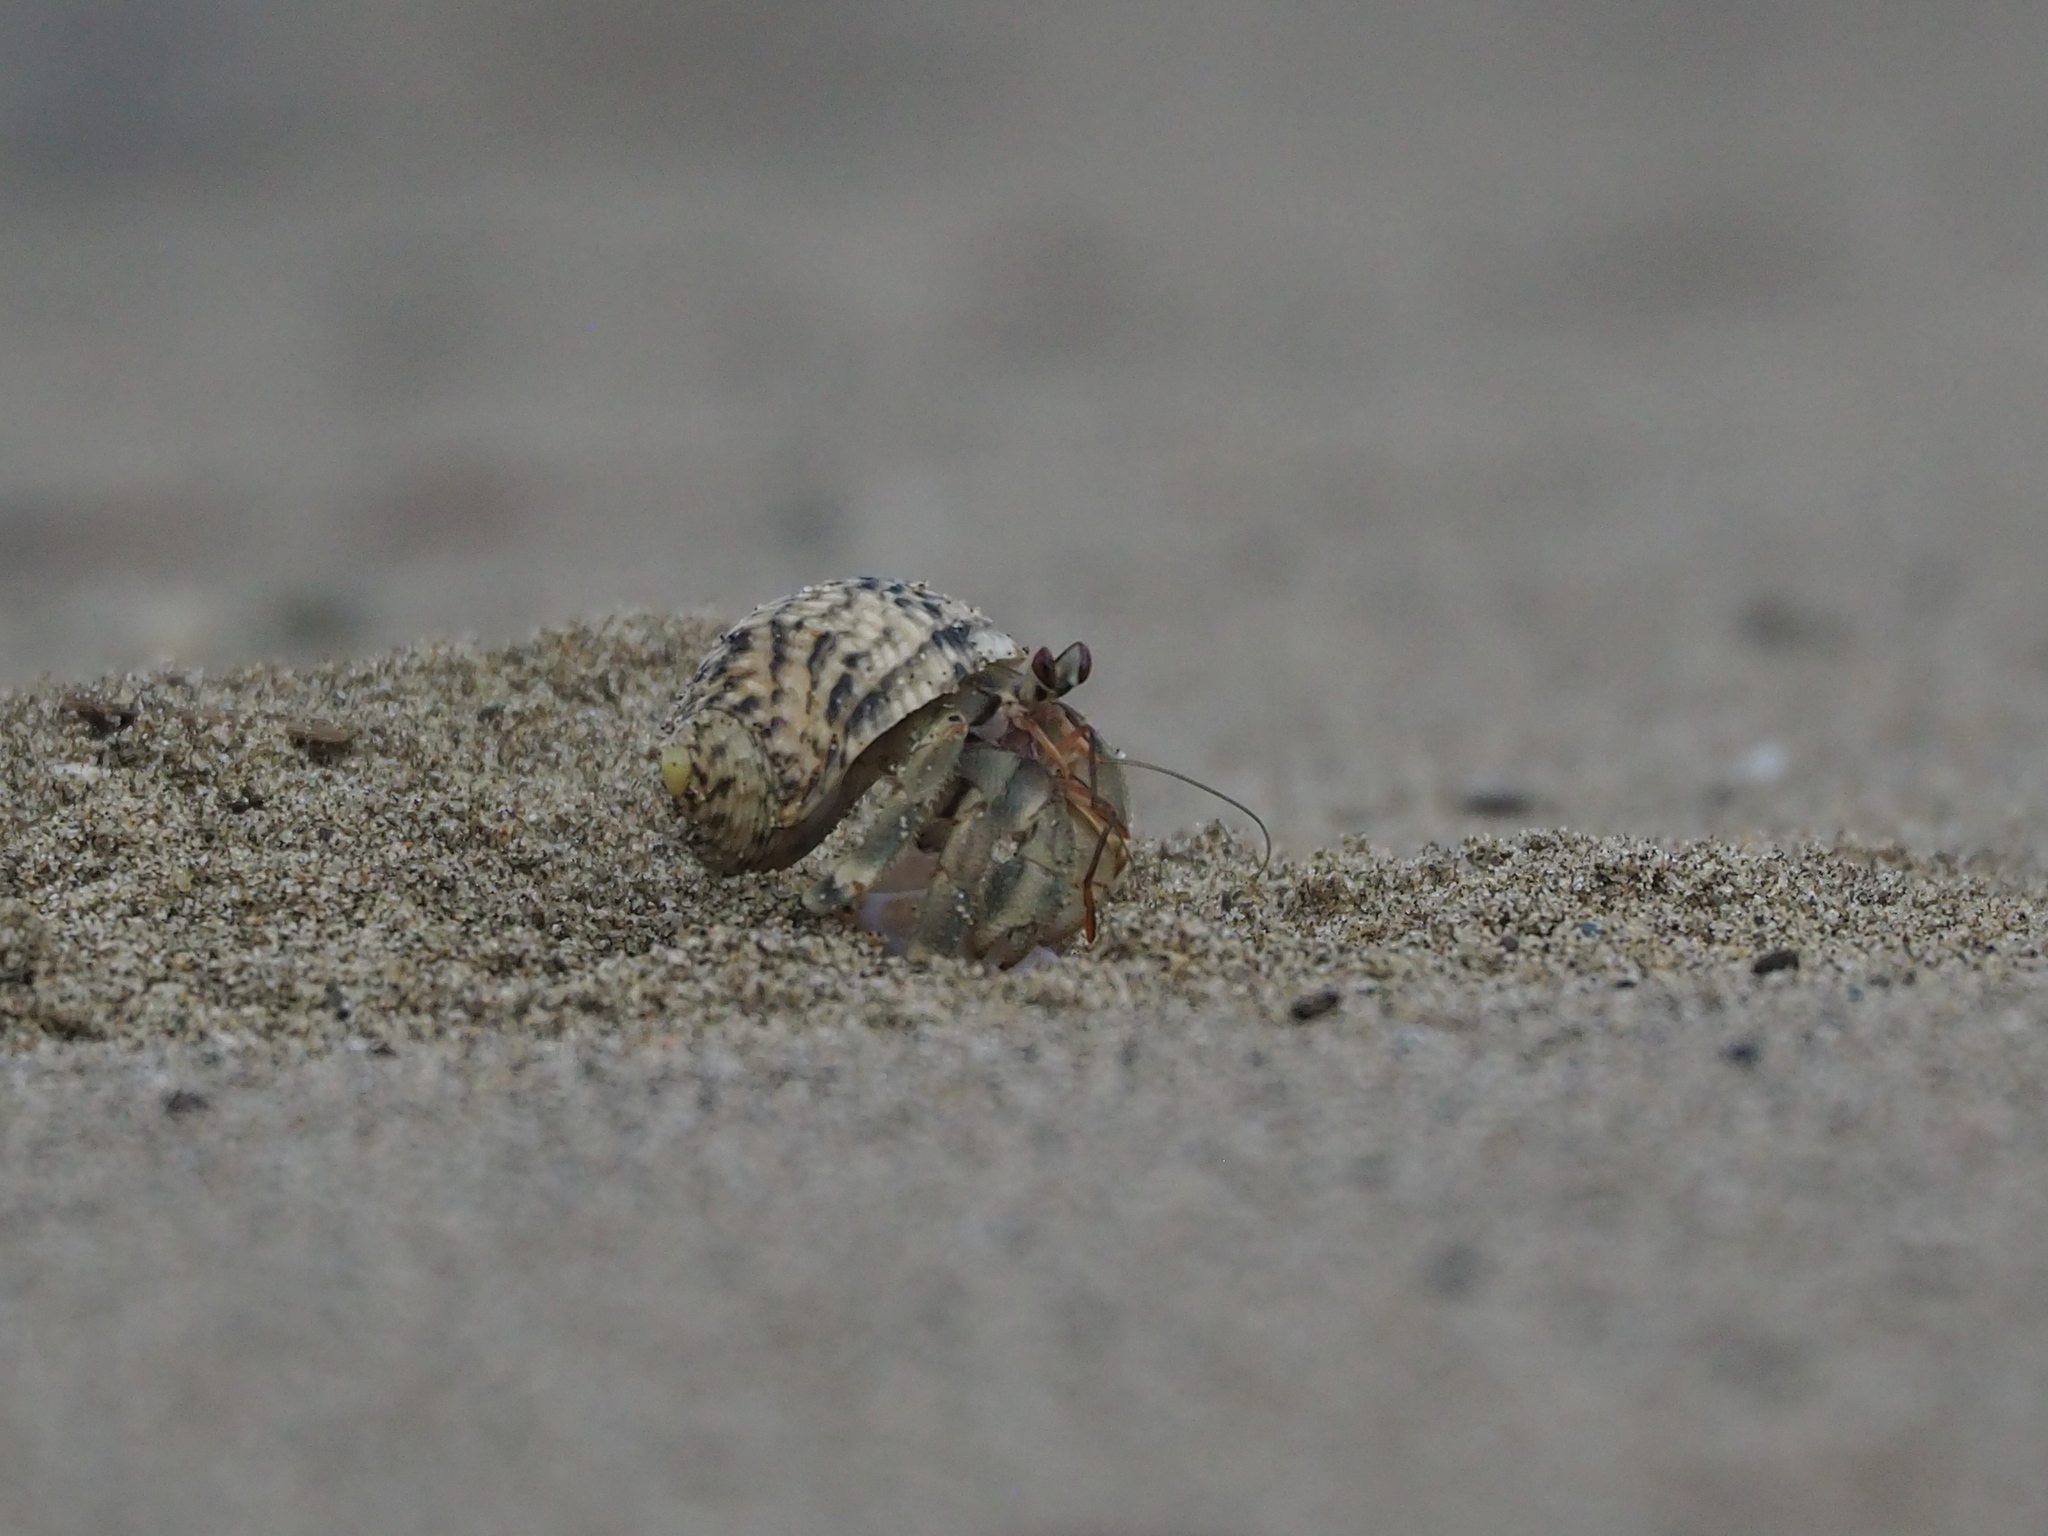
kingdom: Animalia
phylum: Arthropoda
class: Malacostraca
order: Decapoda
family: Coenobitidae
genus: Coenobita
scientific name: Coenobita rugosus
